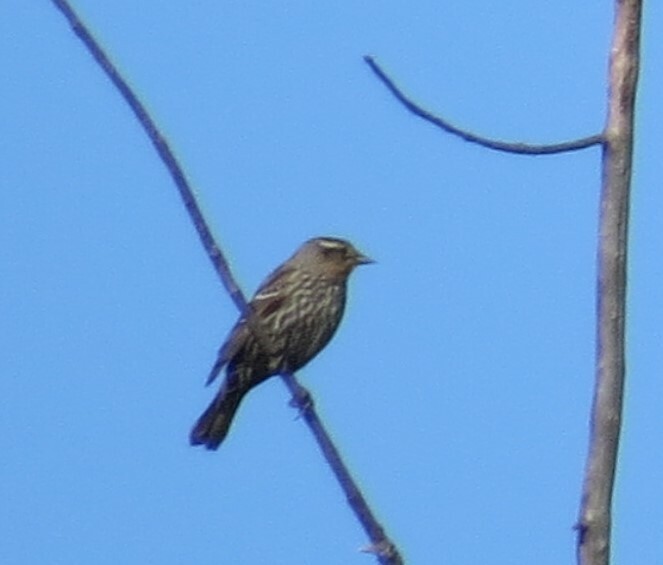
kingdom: Animalia
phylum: Chordata
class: Aves
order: Passeriformes
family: Icteridae
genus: Agelaius
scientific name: Agelaius phoeniceus
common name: Red-winged blackbird
